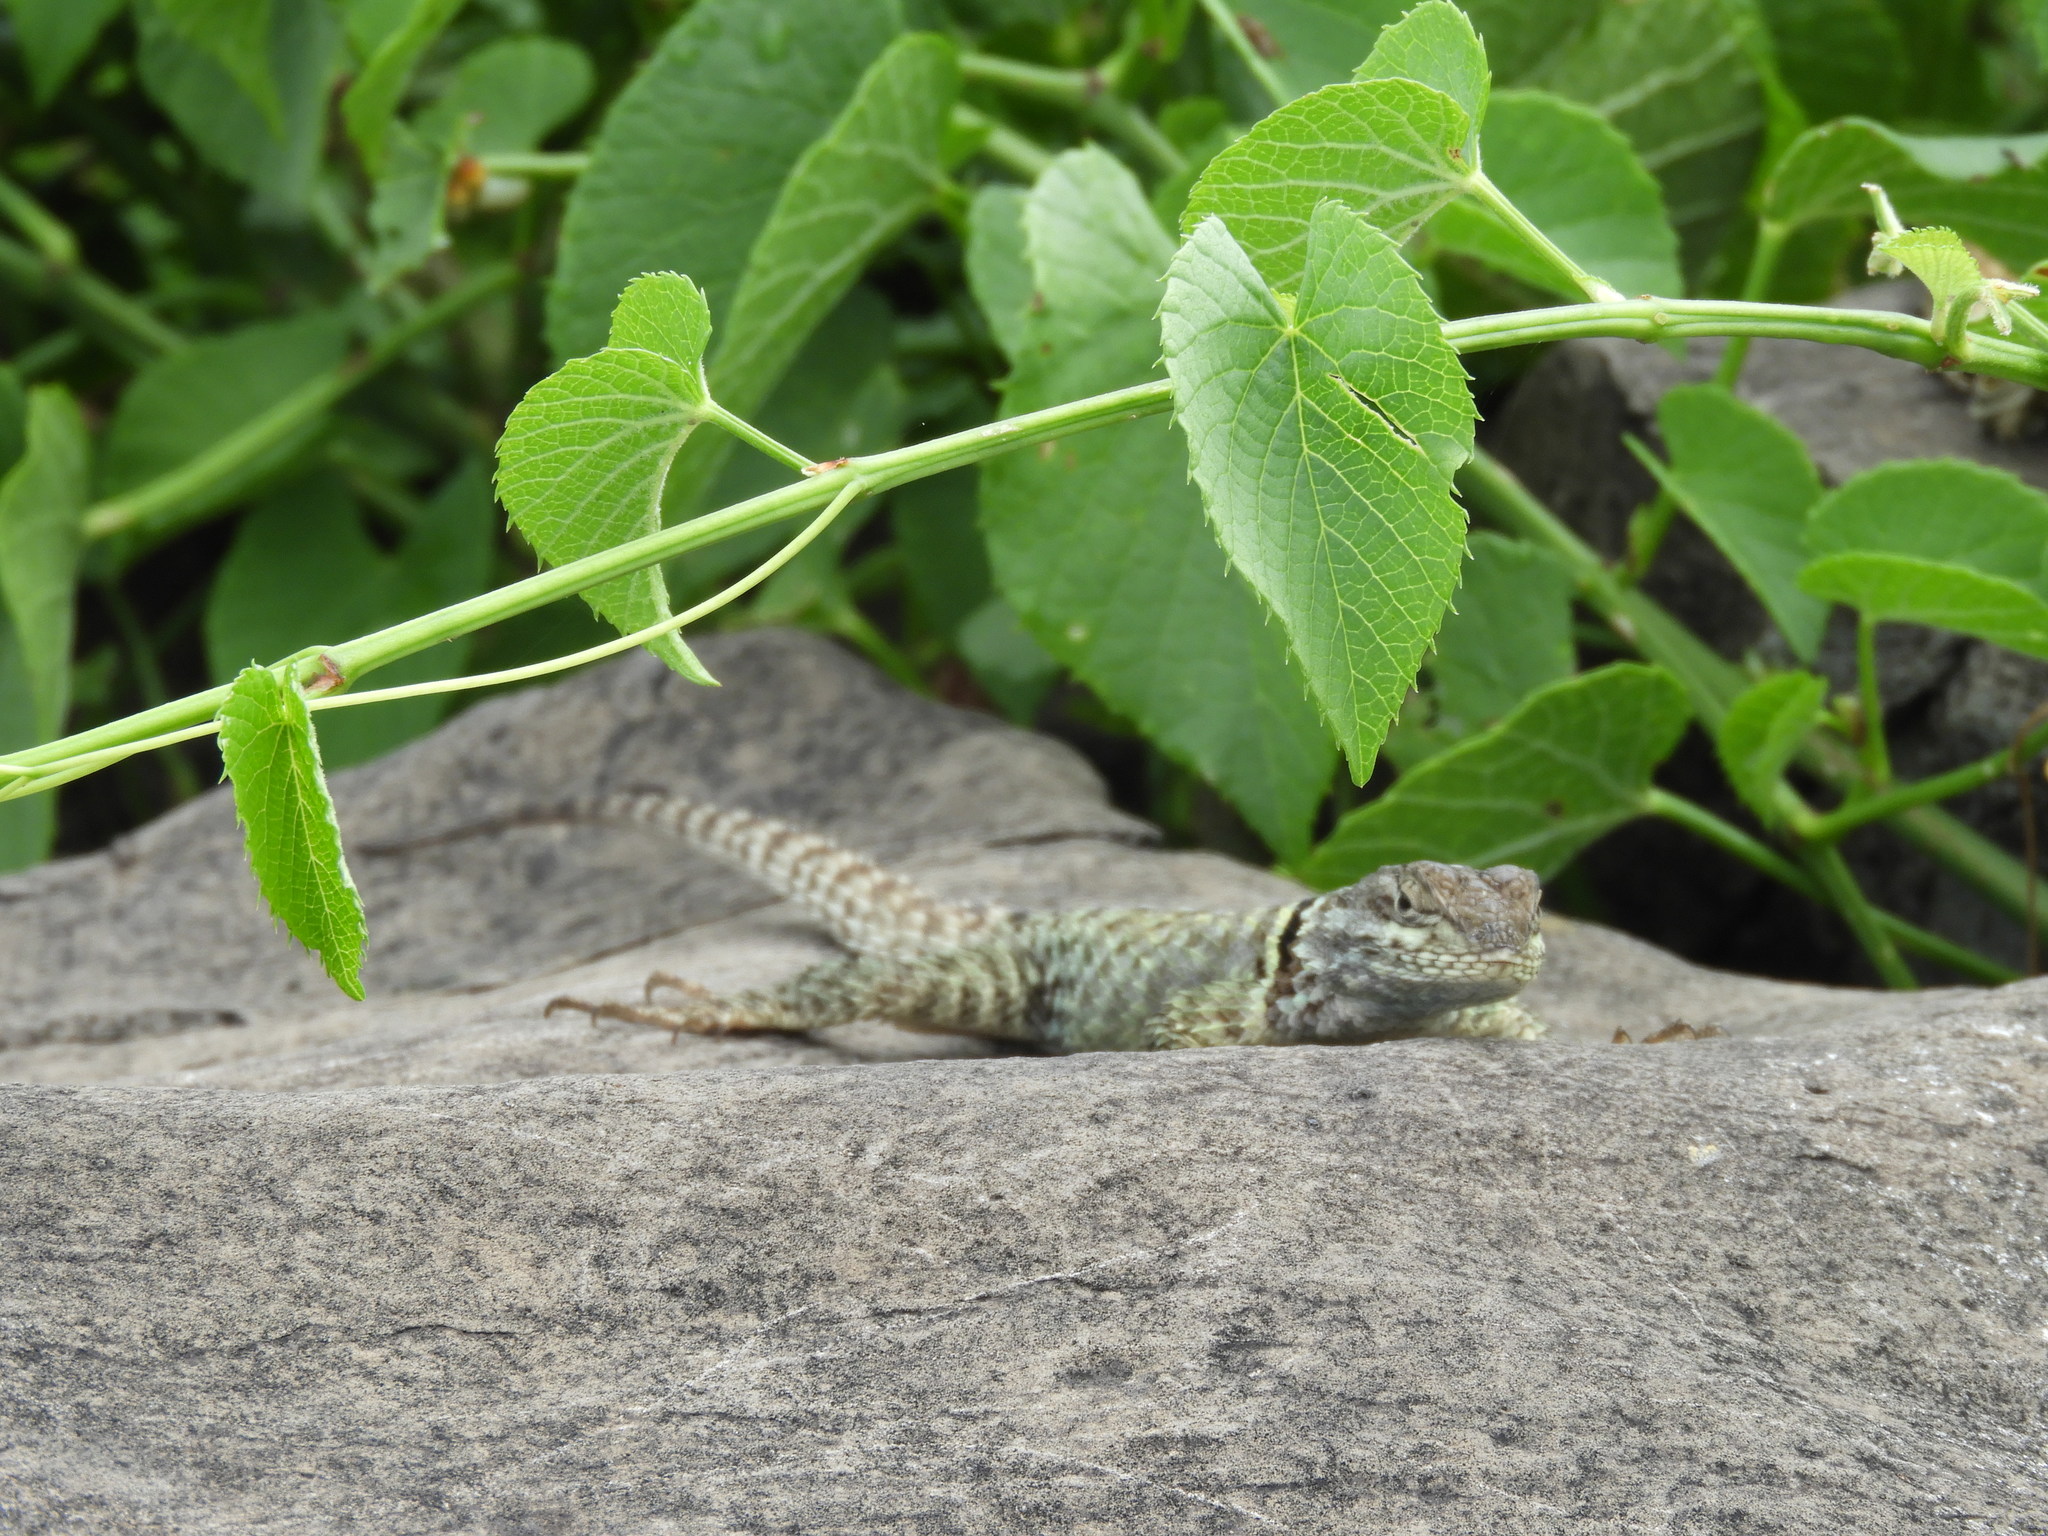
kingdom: Animalia
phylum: Chordata
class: Squamata
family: Phrynosomatidae
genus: Sceloporus
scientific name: Sceloporus torquatus
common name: Central plateau torquate lizard [melanogaster]
